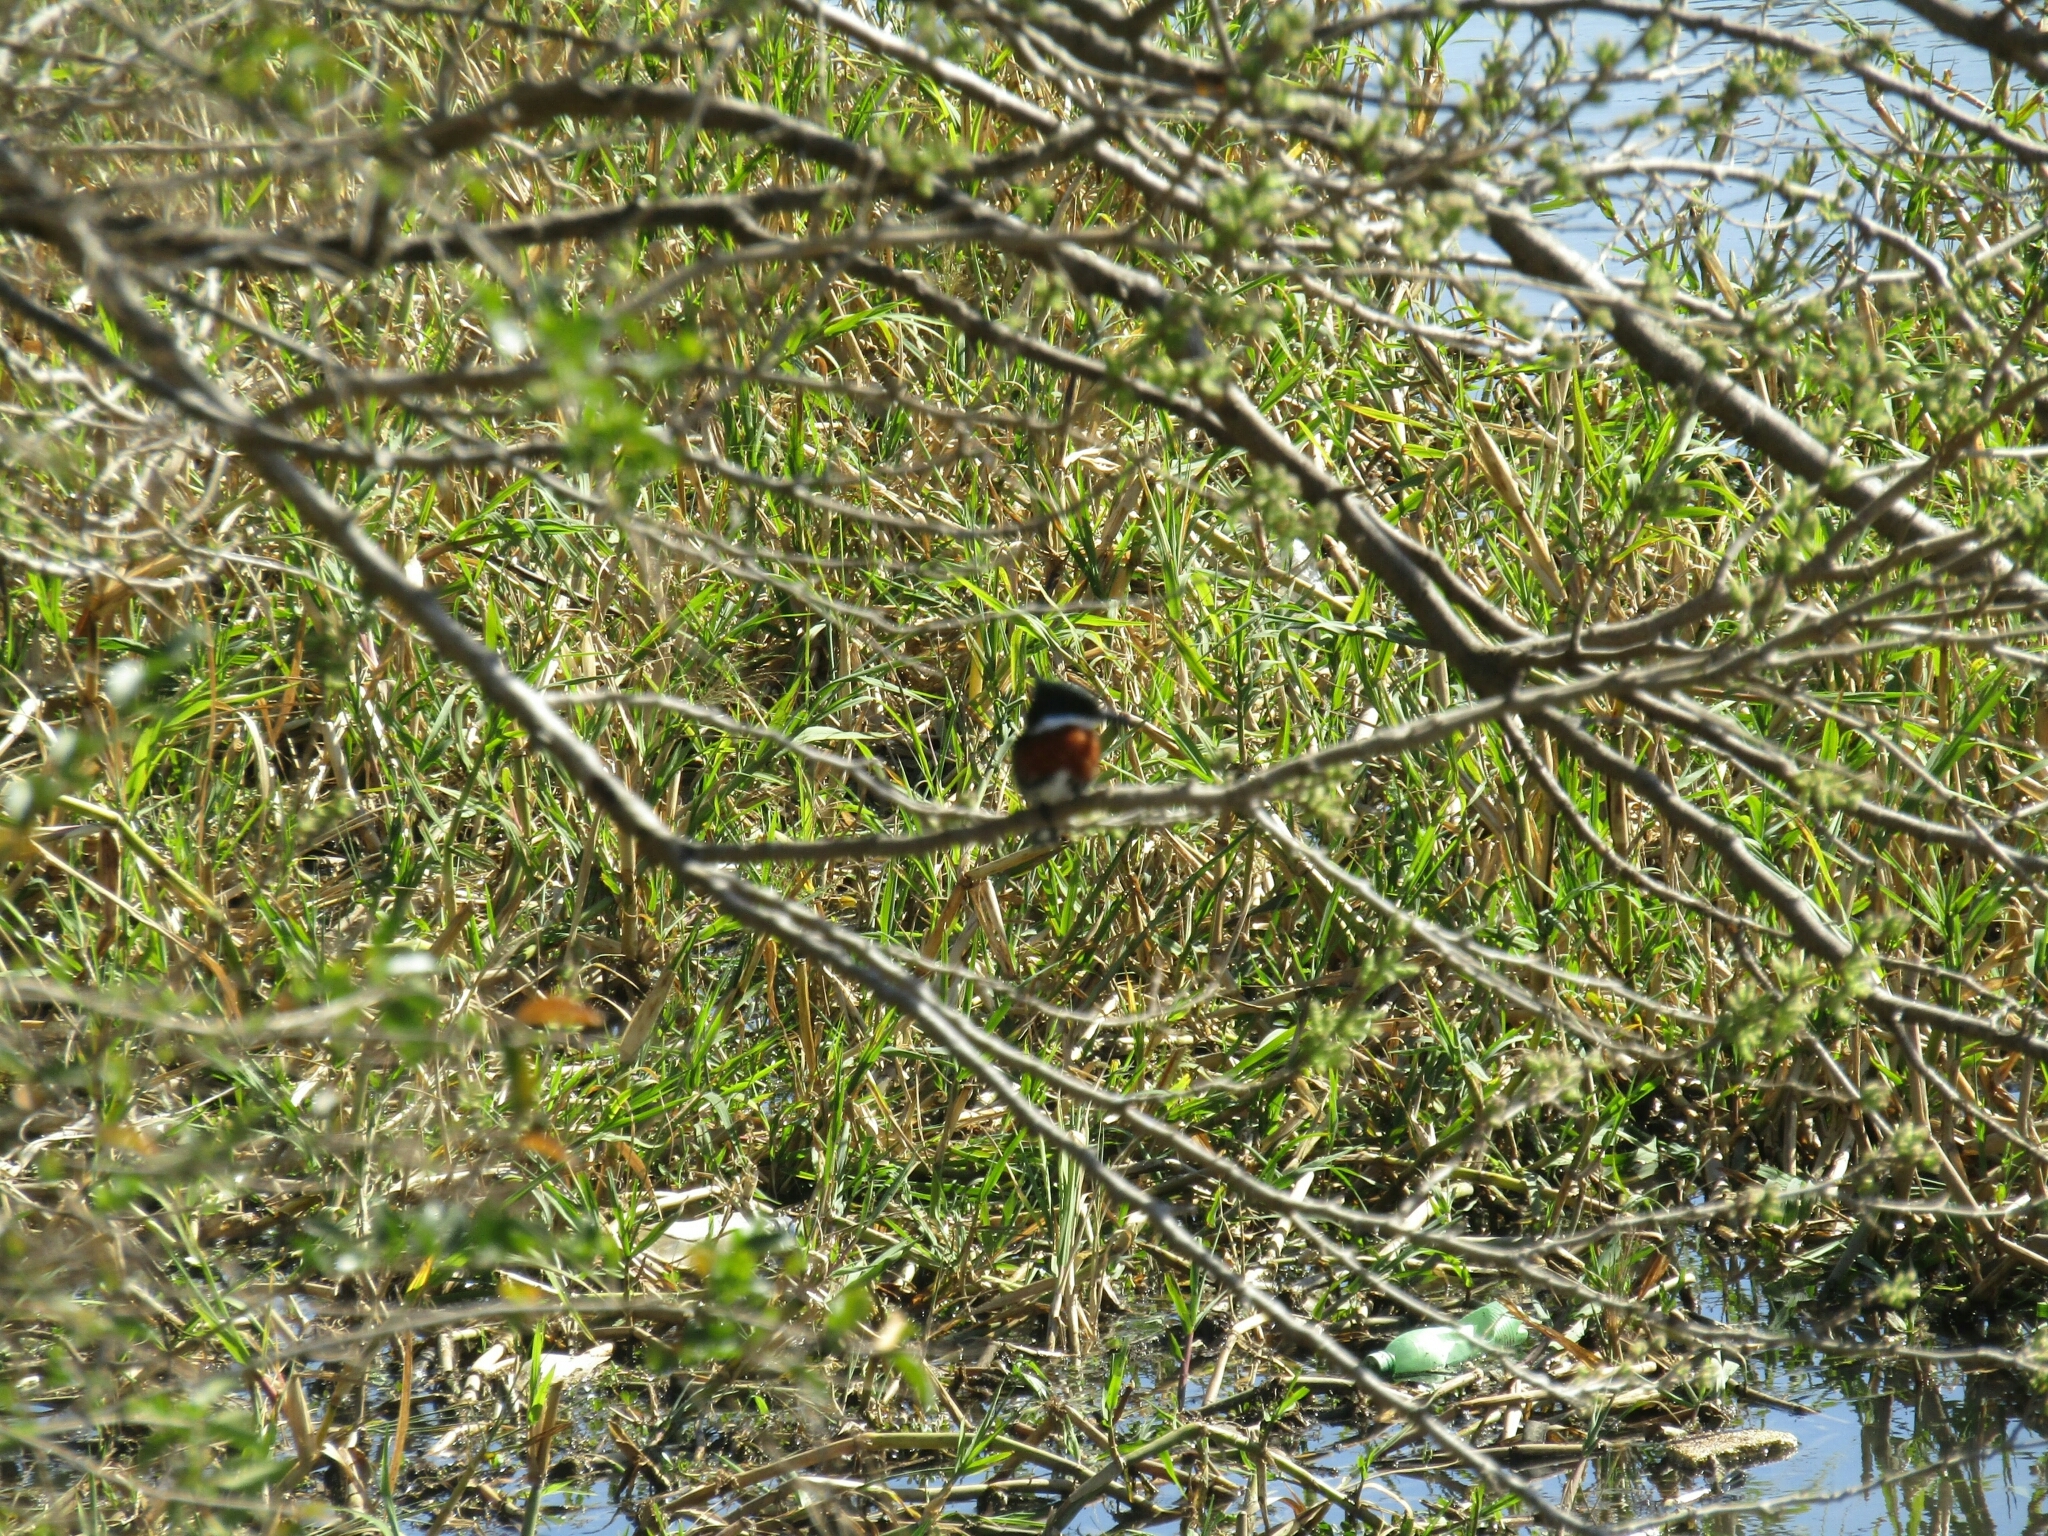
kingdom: Animalia
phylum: Chordata
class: Aves
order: Coraciiformes
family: Alcedinidae
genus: Chloroceryle
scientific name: Chloroceryle americana
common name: Green kingfisher
